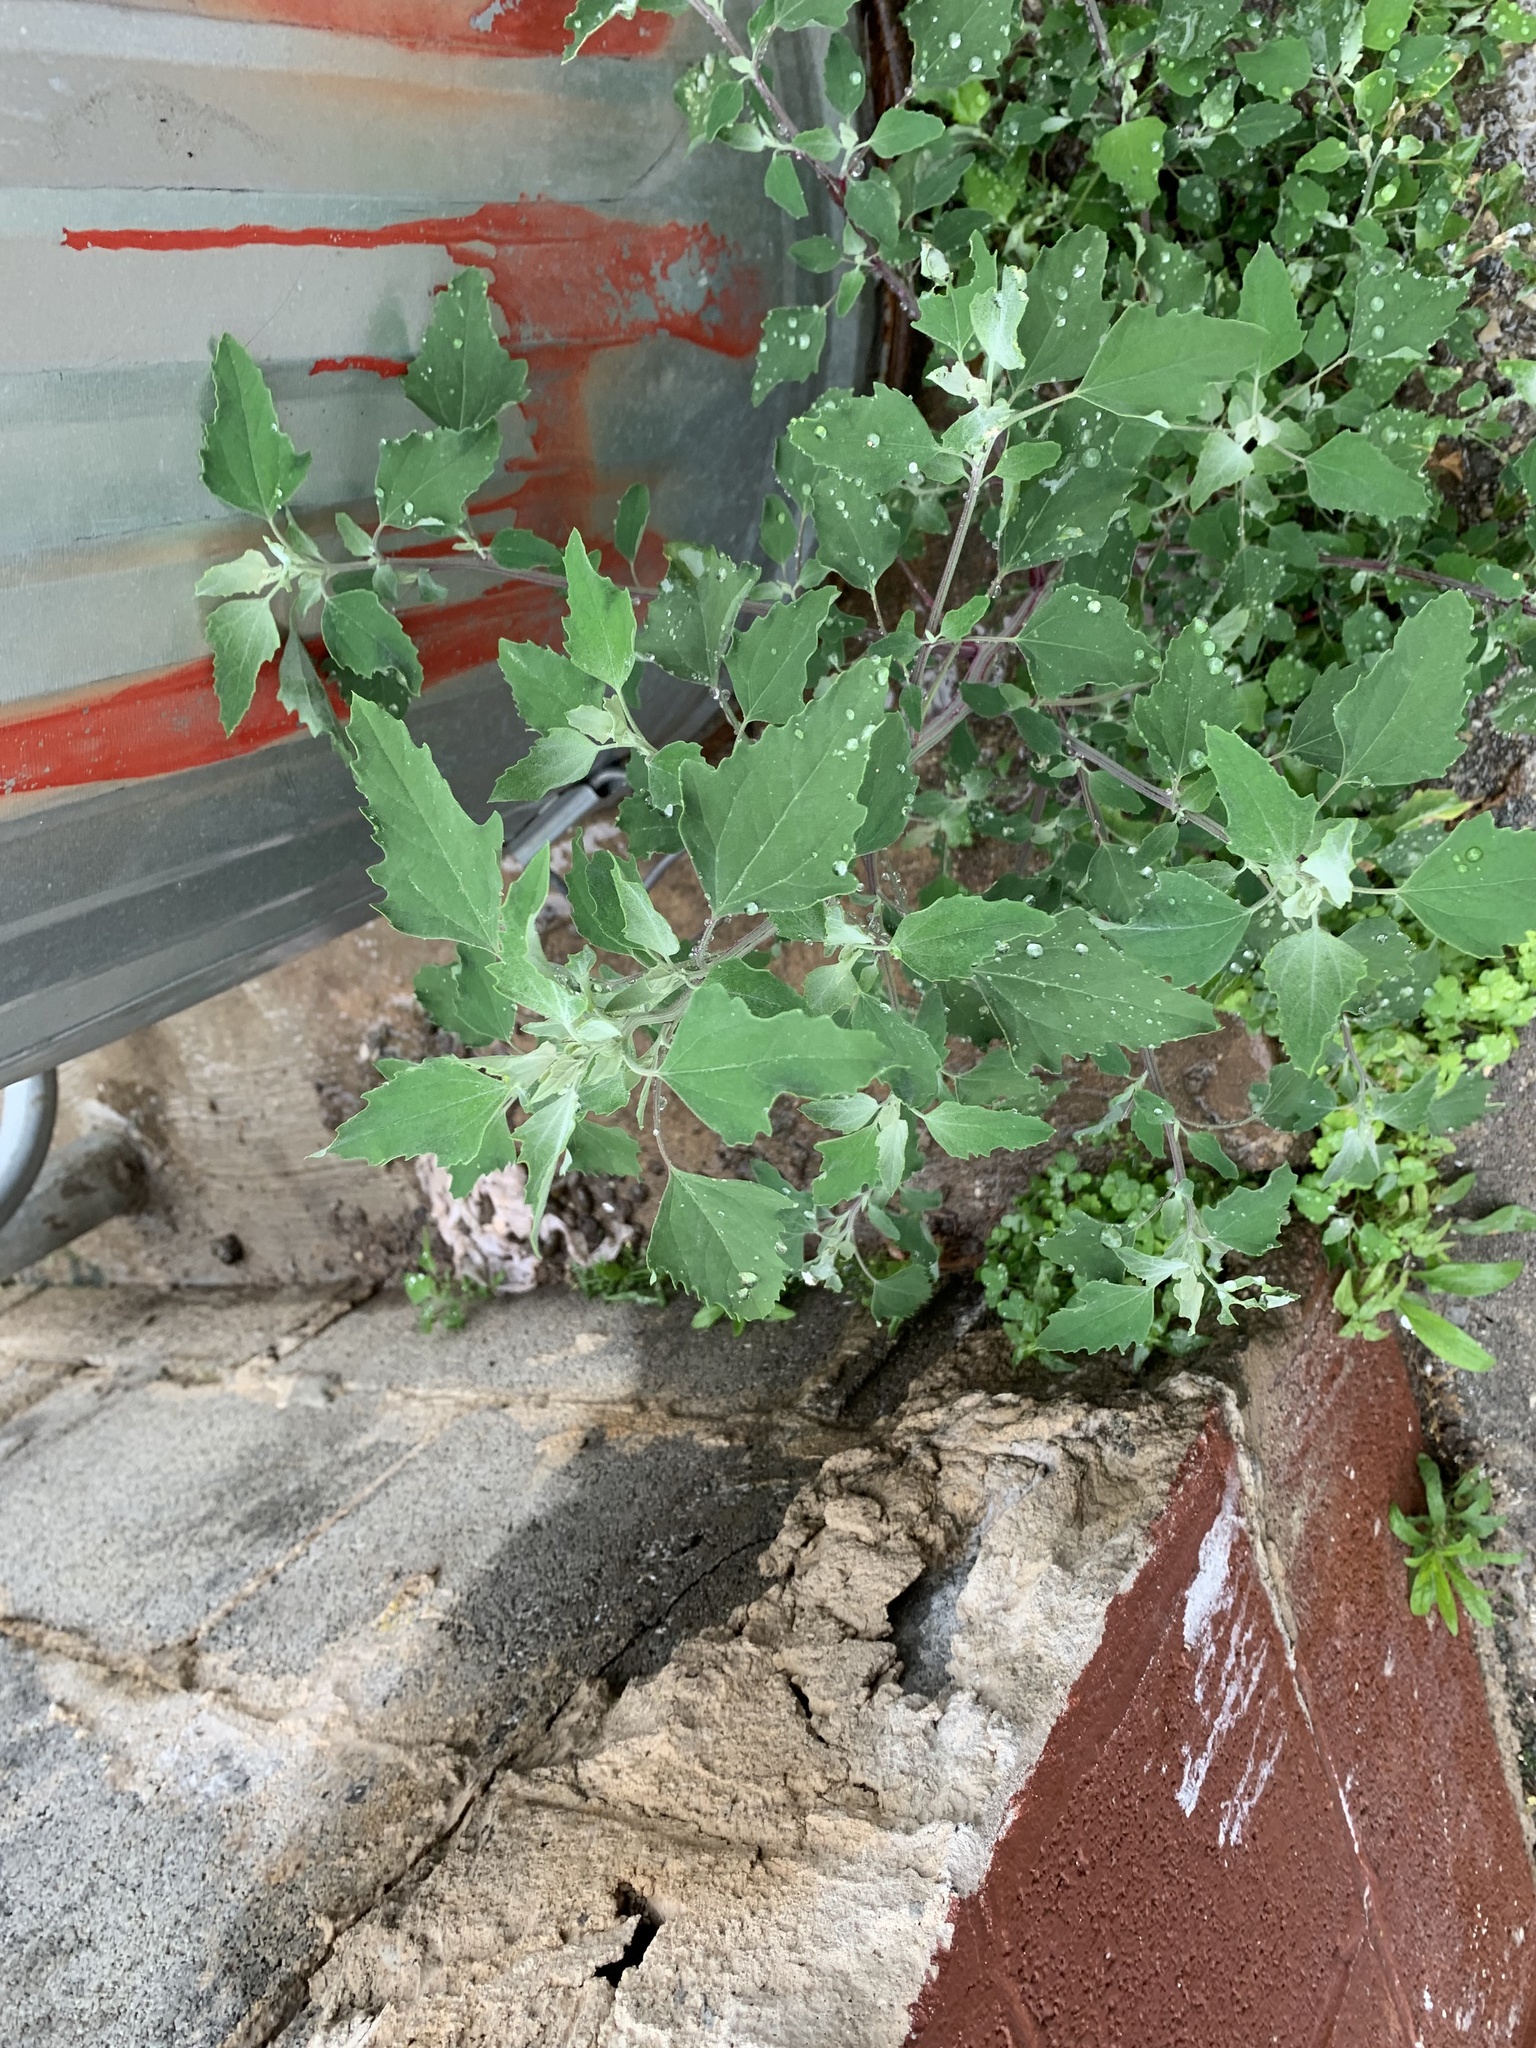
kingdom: Plantae
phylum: Tracheophyta
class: Magnoliopsida
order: Caryophyllales
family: Amaranthaceae
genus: Chenopodium
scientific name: Chenopodium album
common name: Fat-hen
